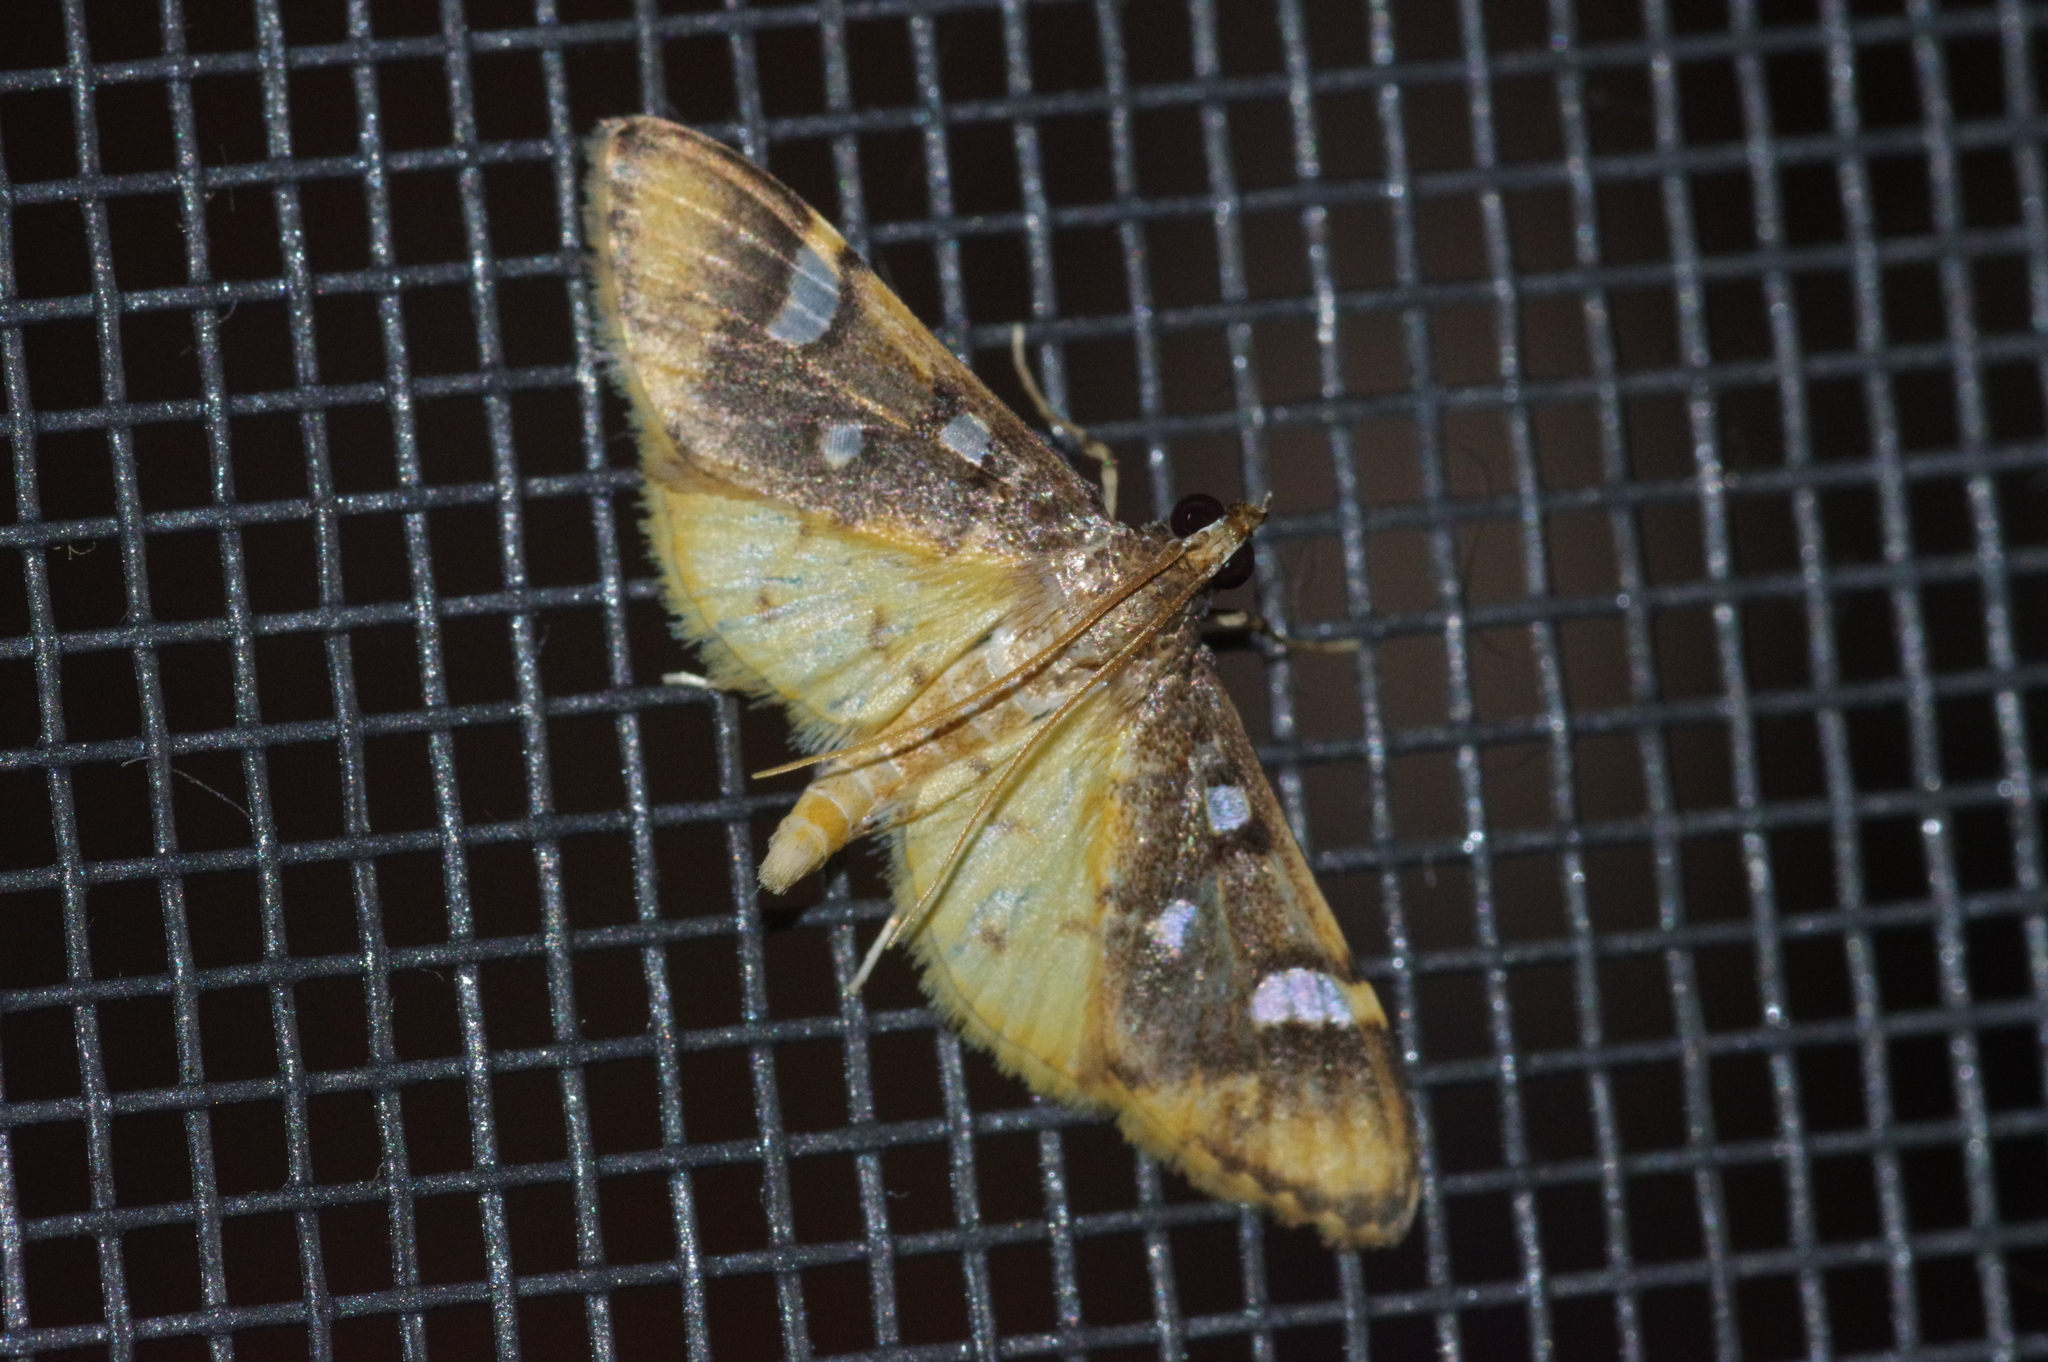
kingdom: Animalia
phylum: Arthropoda
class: Insecta
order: Lepidoptera
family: Crambidae
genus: Cotachena
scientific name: Cotachena alysoni
